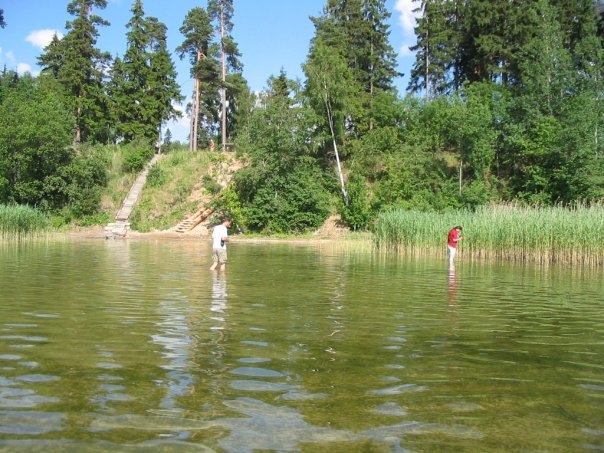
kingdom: Plantae
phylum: Tracheophyta
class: Liliopsida
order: Poales
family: Poaceae
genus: Phragmites
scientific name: Phragmites australis
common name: Common reed
